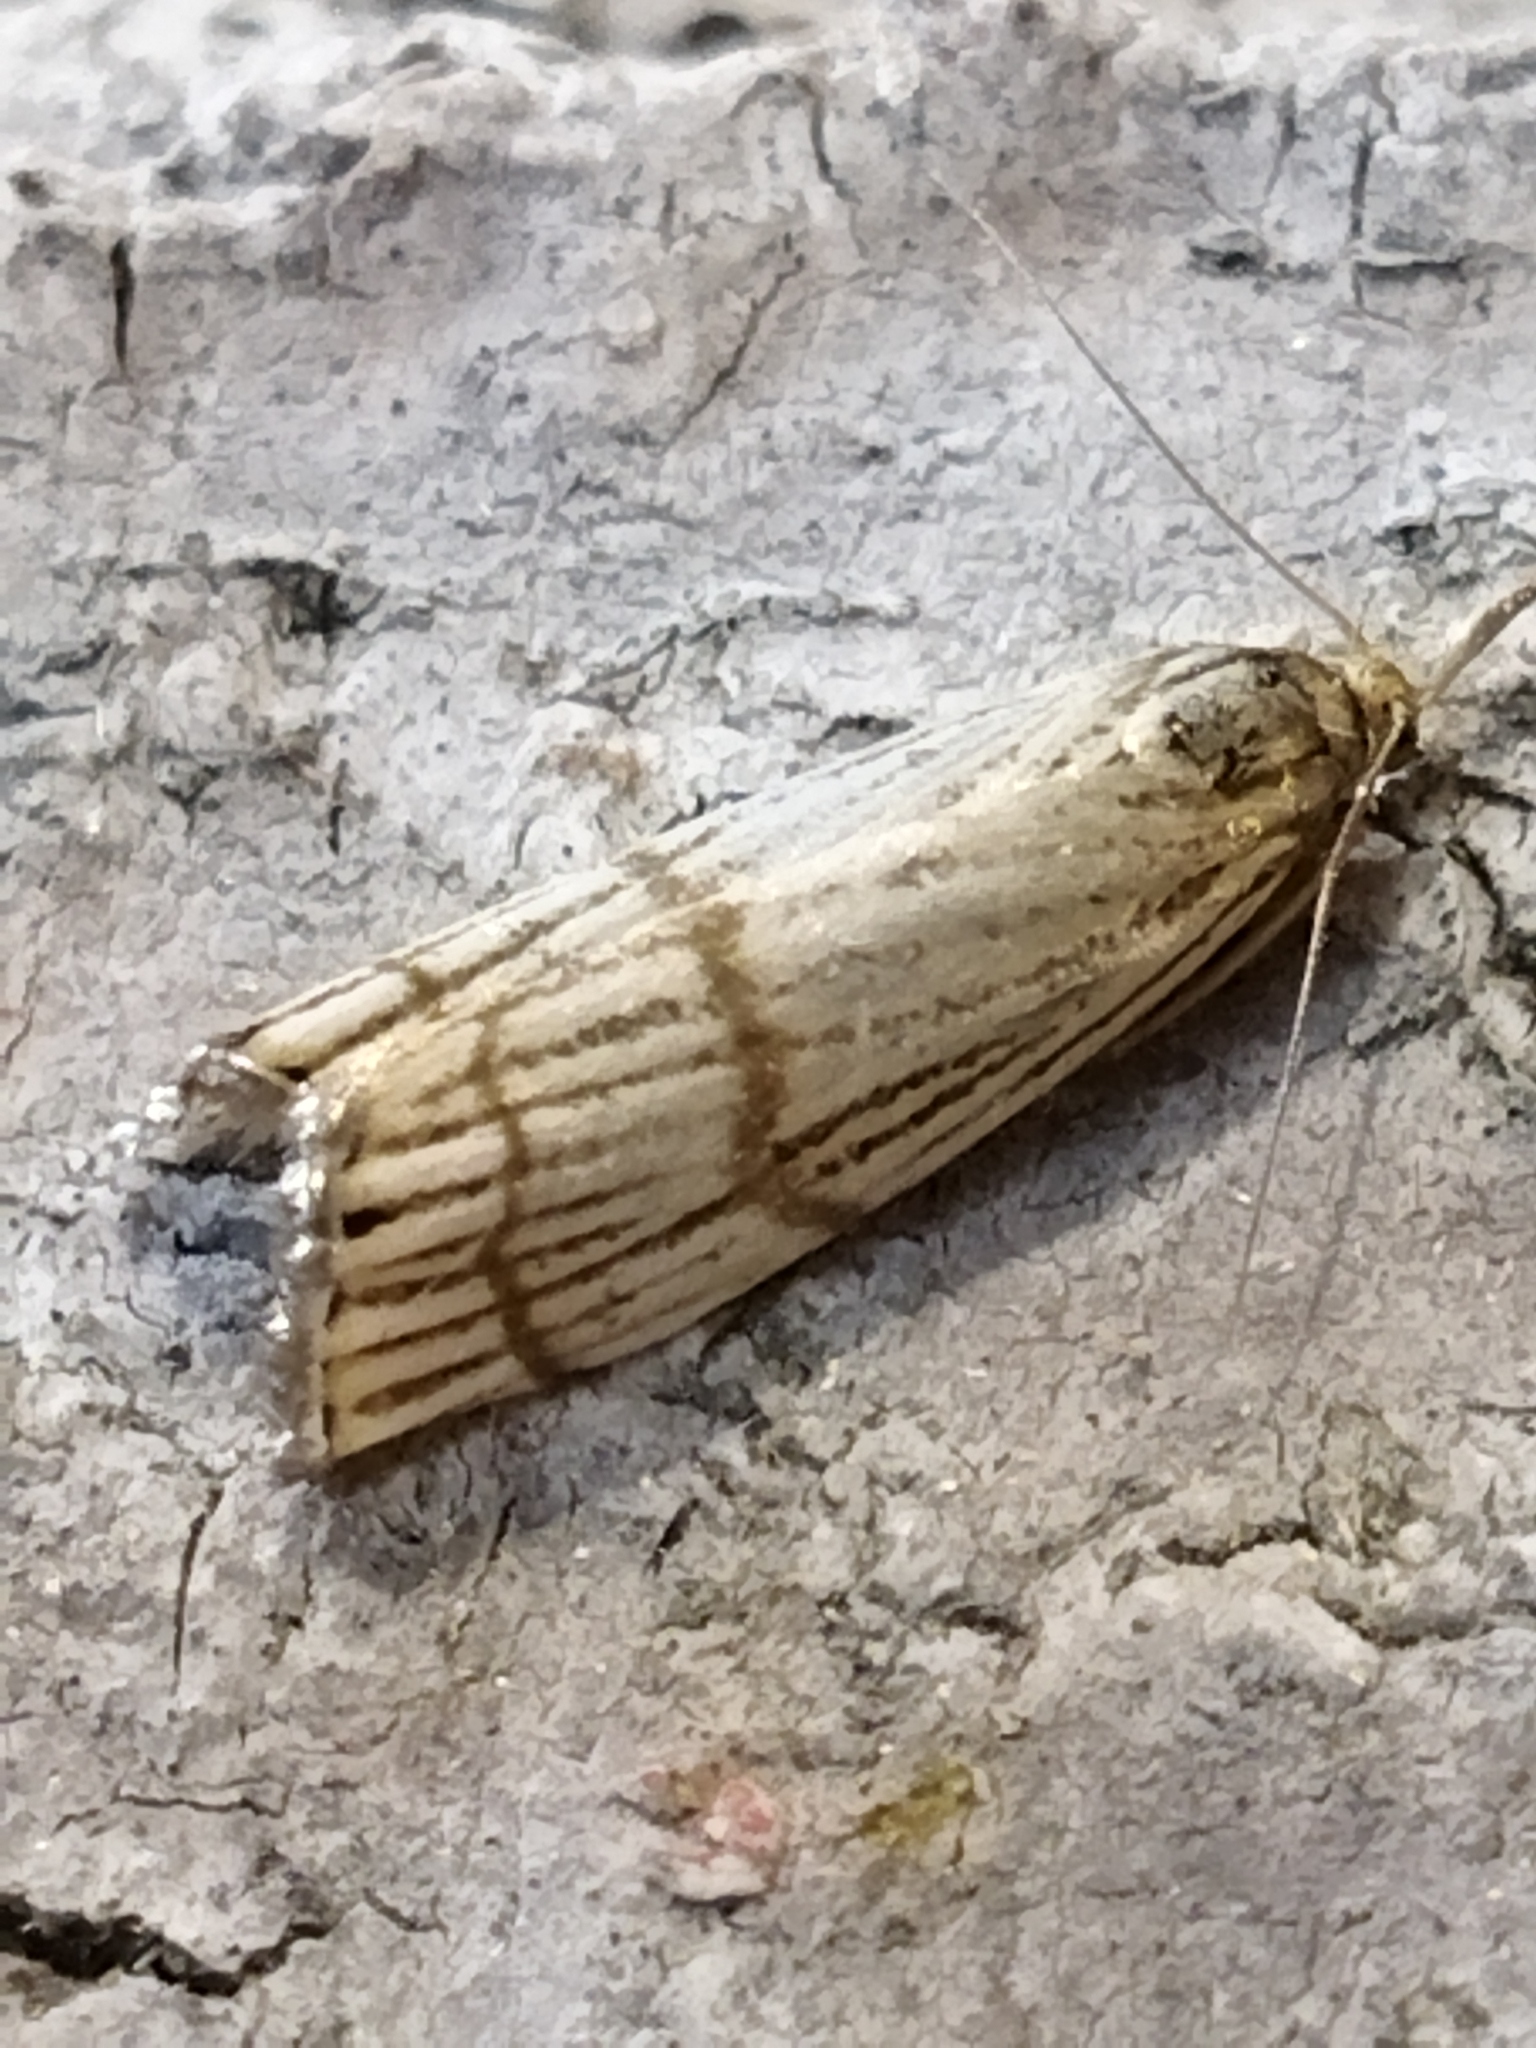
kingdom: Animalia
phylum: Arthropoda
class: Insecta
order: Lepidoptera
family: Crambidae
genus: Chrysocrambus
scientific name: Chrysocrambus linetella
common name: Orange-bar grass-veneer
